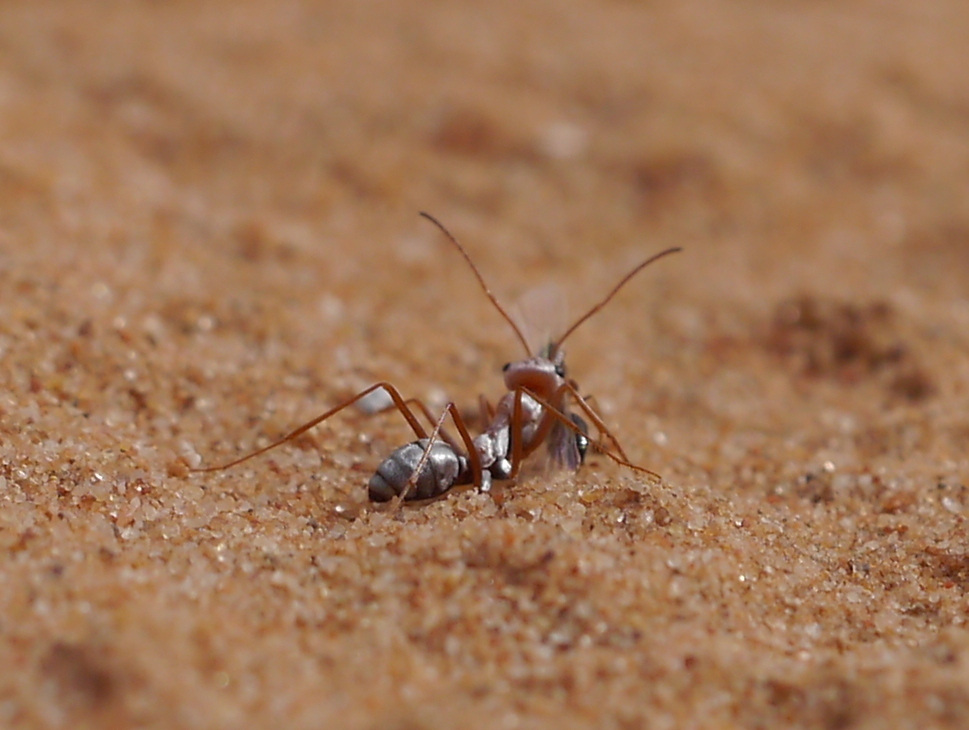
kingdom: Animalia
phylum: Arthropoda
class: Insecta
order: Hymenoptera
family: Formicidae
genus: Cataglyphis
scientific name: Cataglyphis bombycinus
